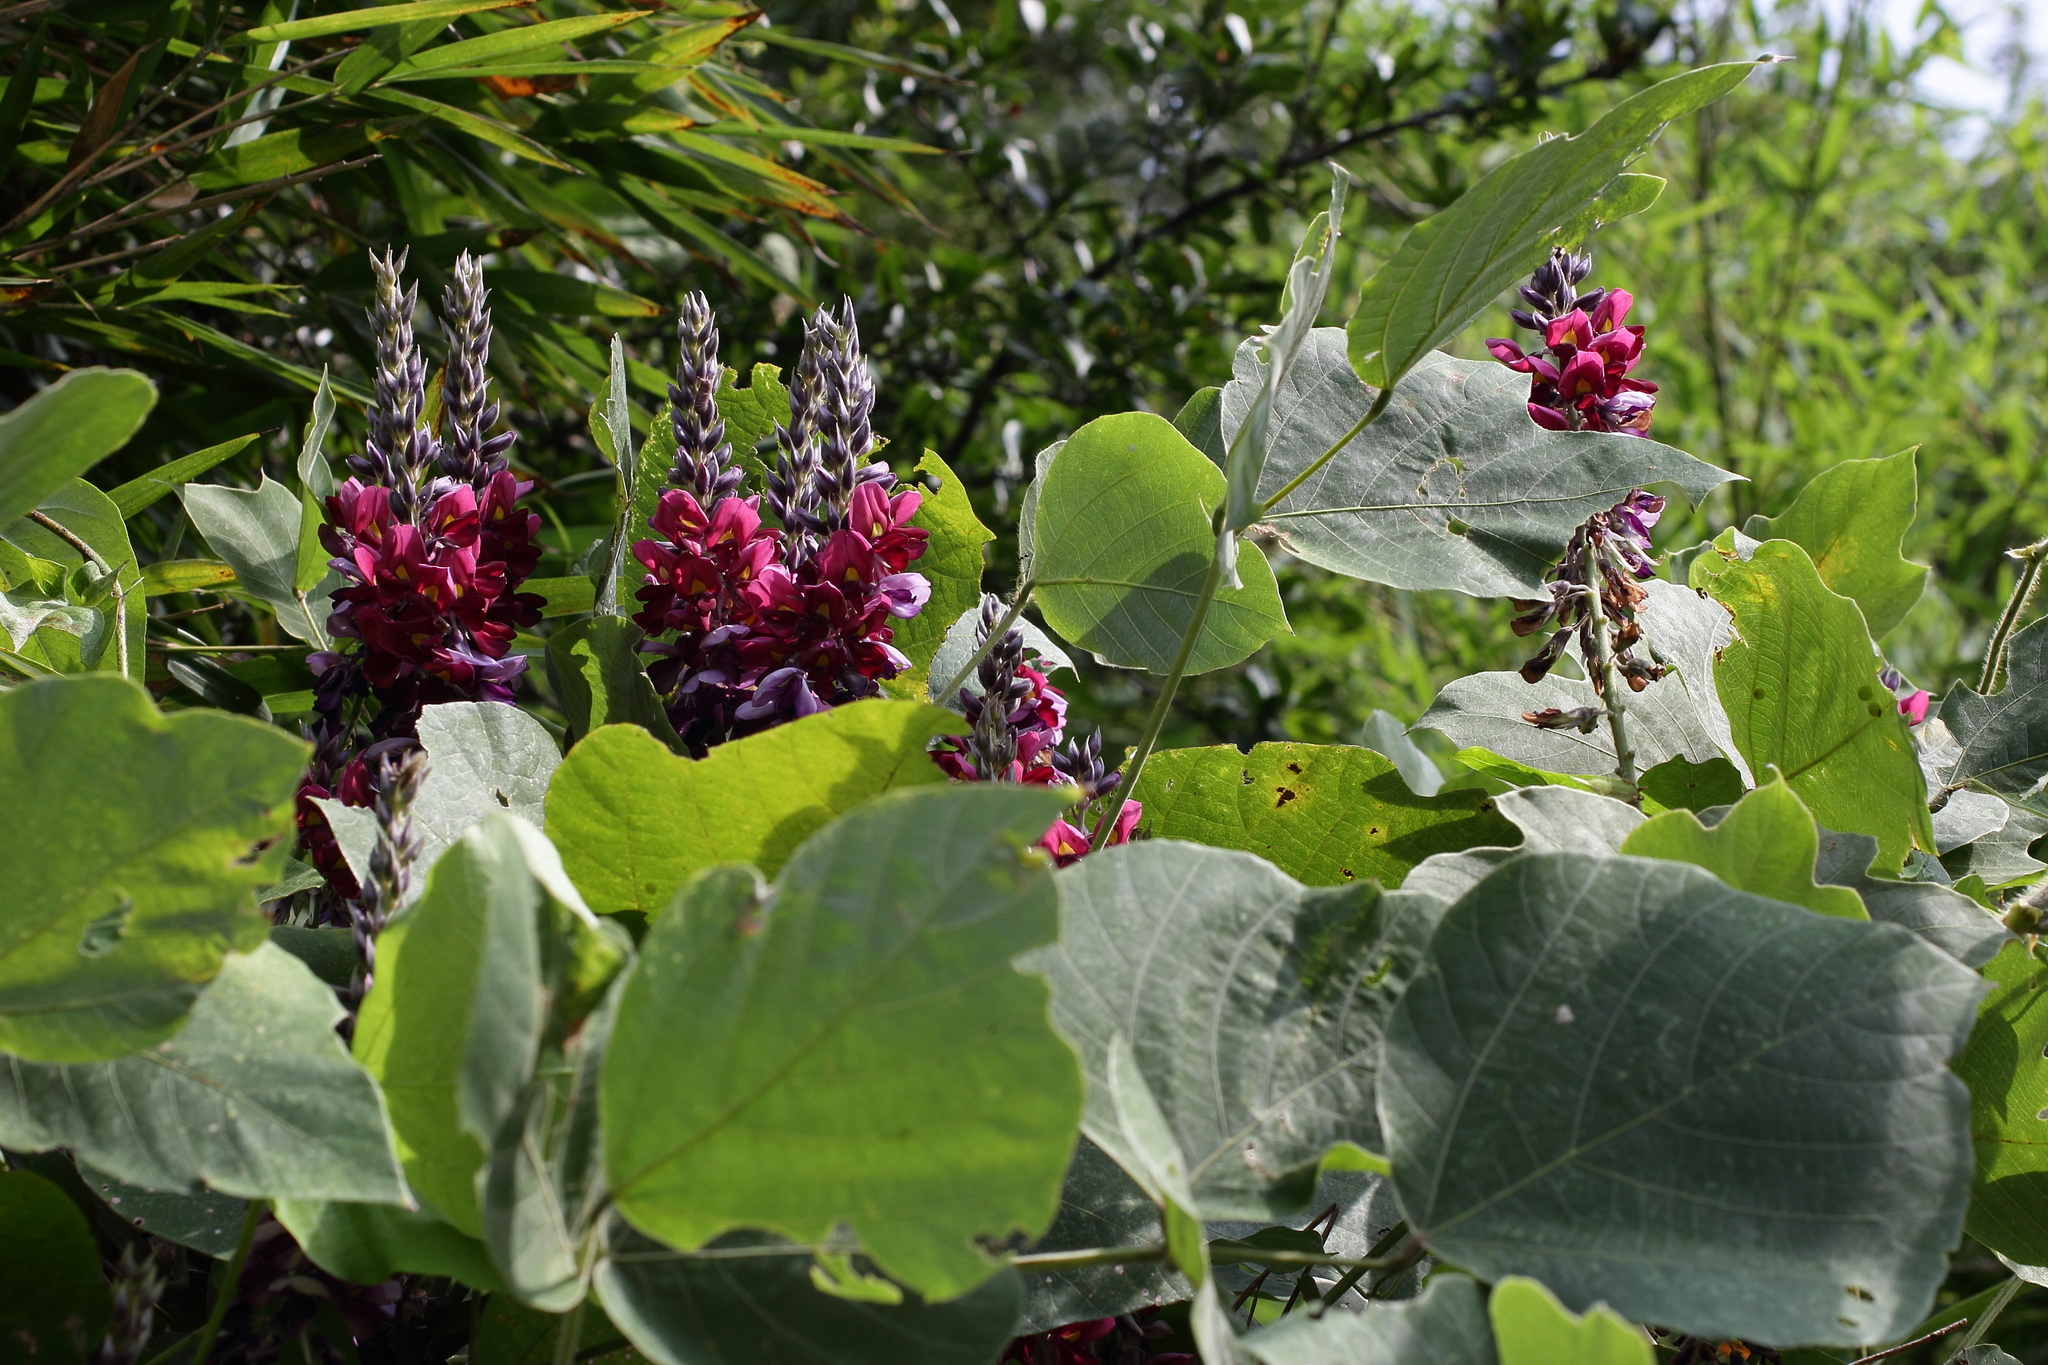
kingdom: Plantae
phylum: Tracheophyta
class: Magnoliopsida
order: Fabales
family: Fabaceae
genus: Pueraria
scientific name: Pueraria montana
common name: Kudzu
